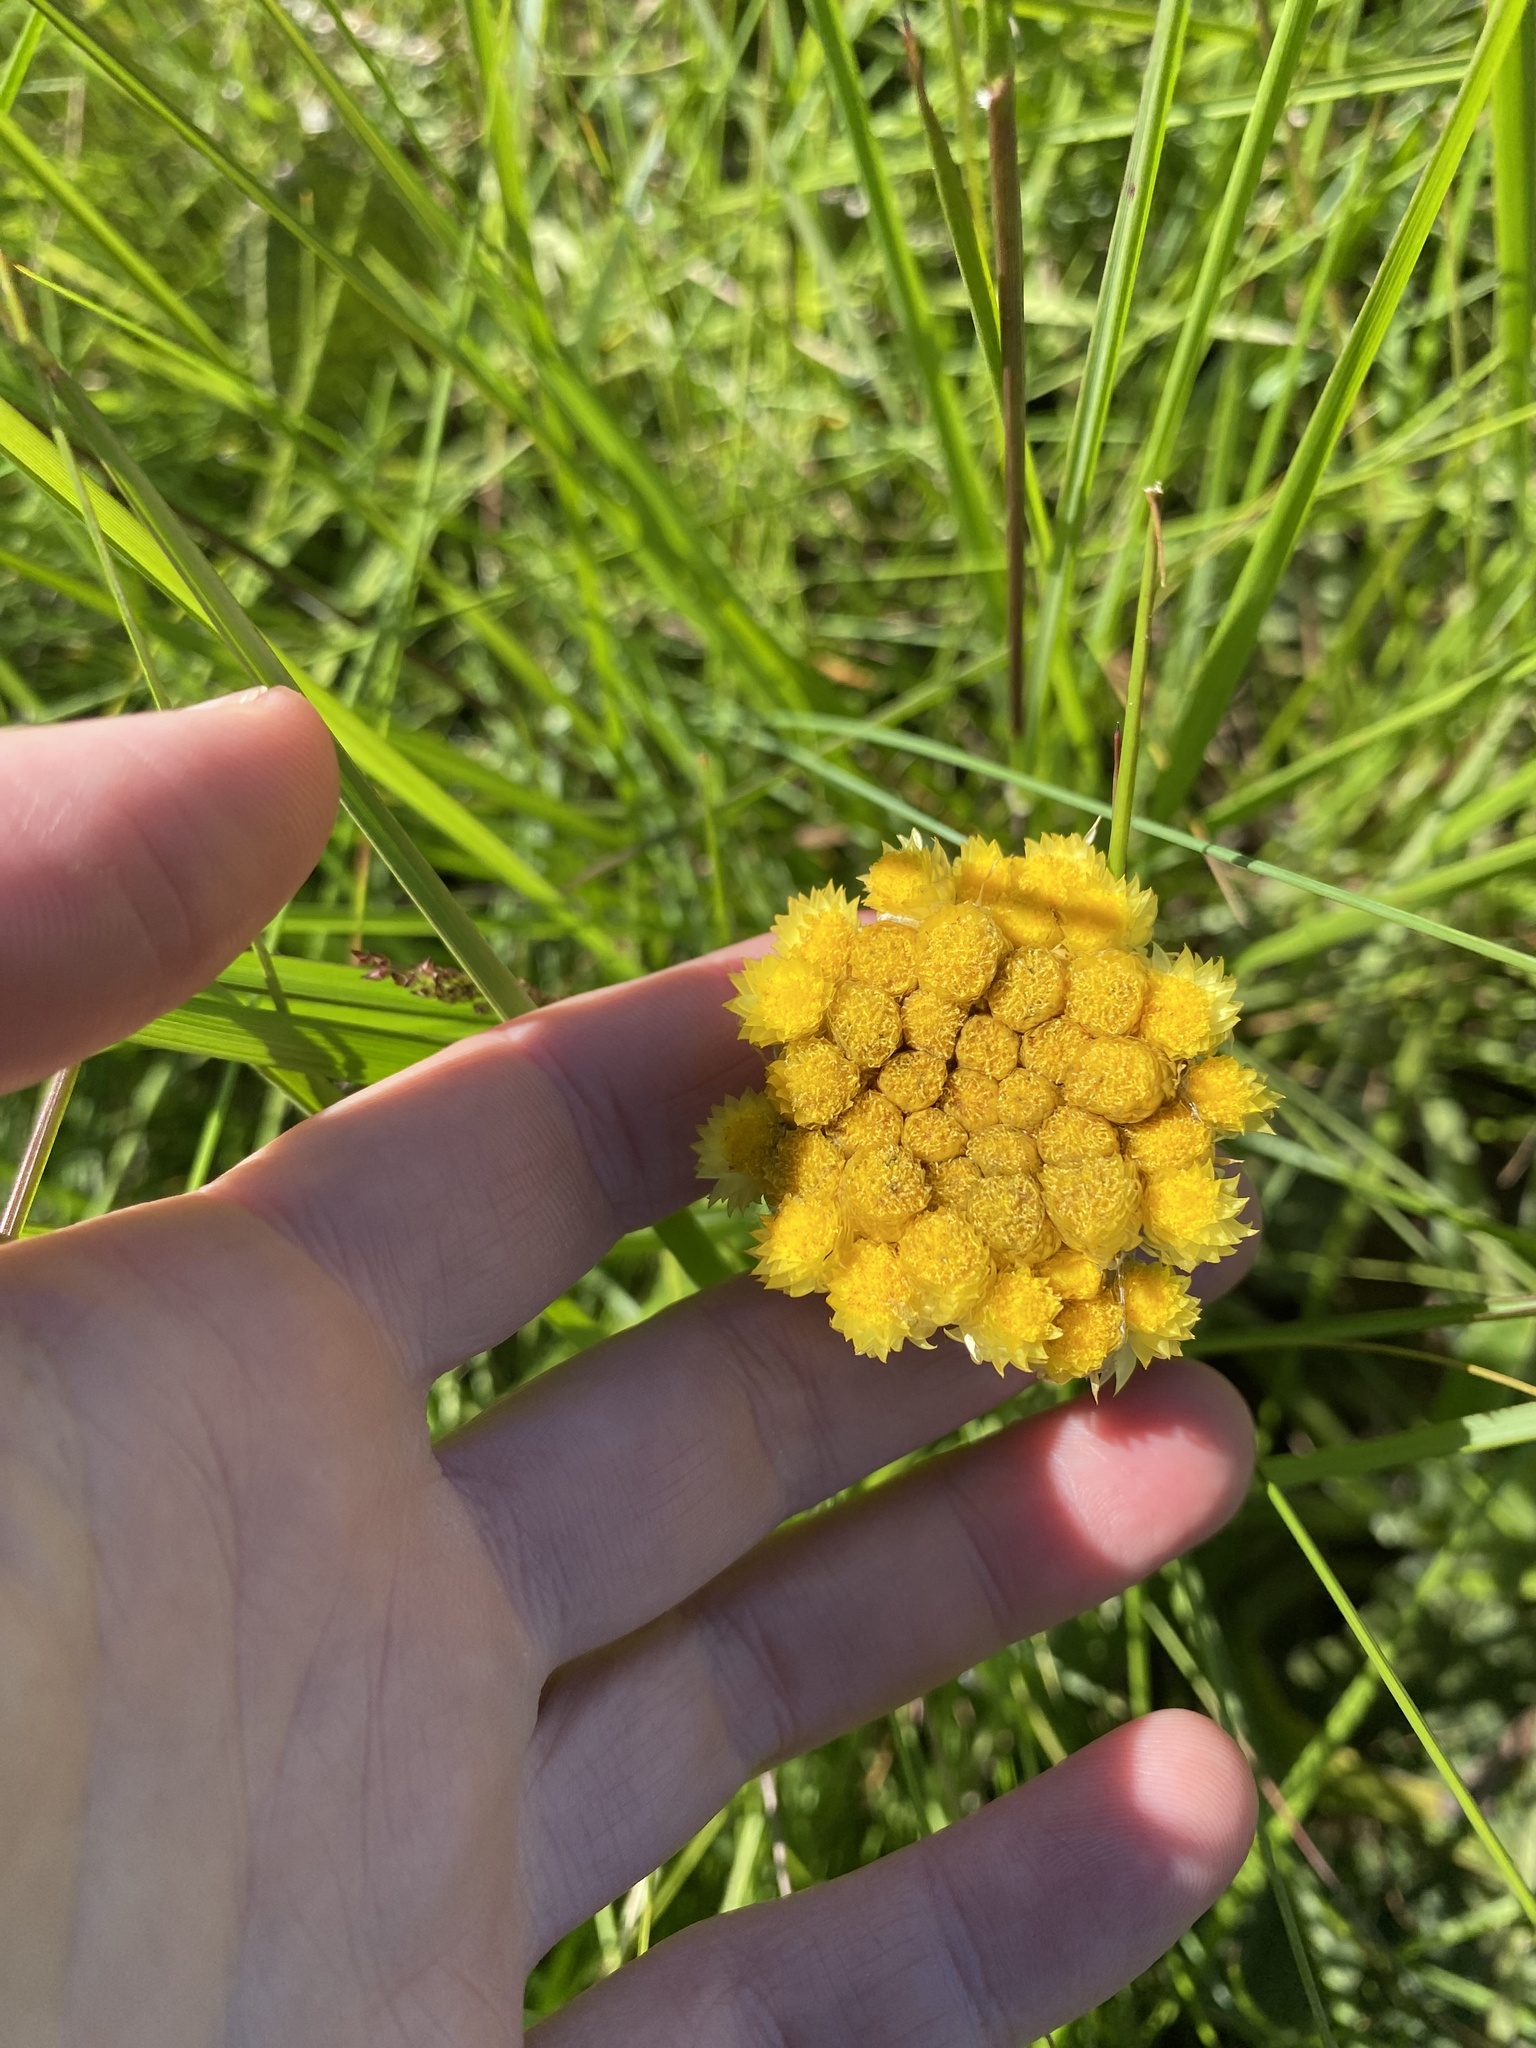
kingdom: Plantae
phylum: Tracheophyta
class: Magnoliopsida
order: Asterales
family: Asteraceae
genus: Helichrysum
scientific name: Helichrysum auriceps
